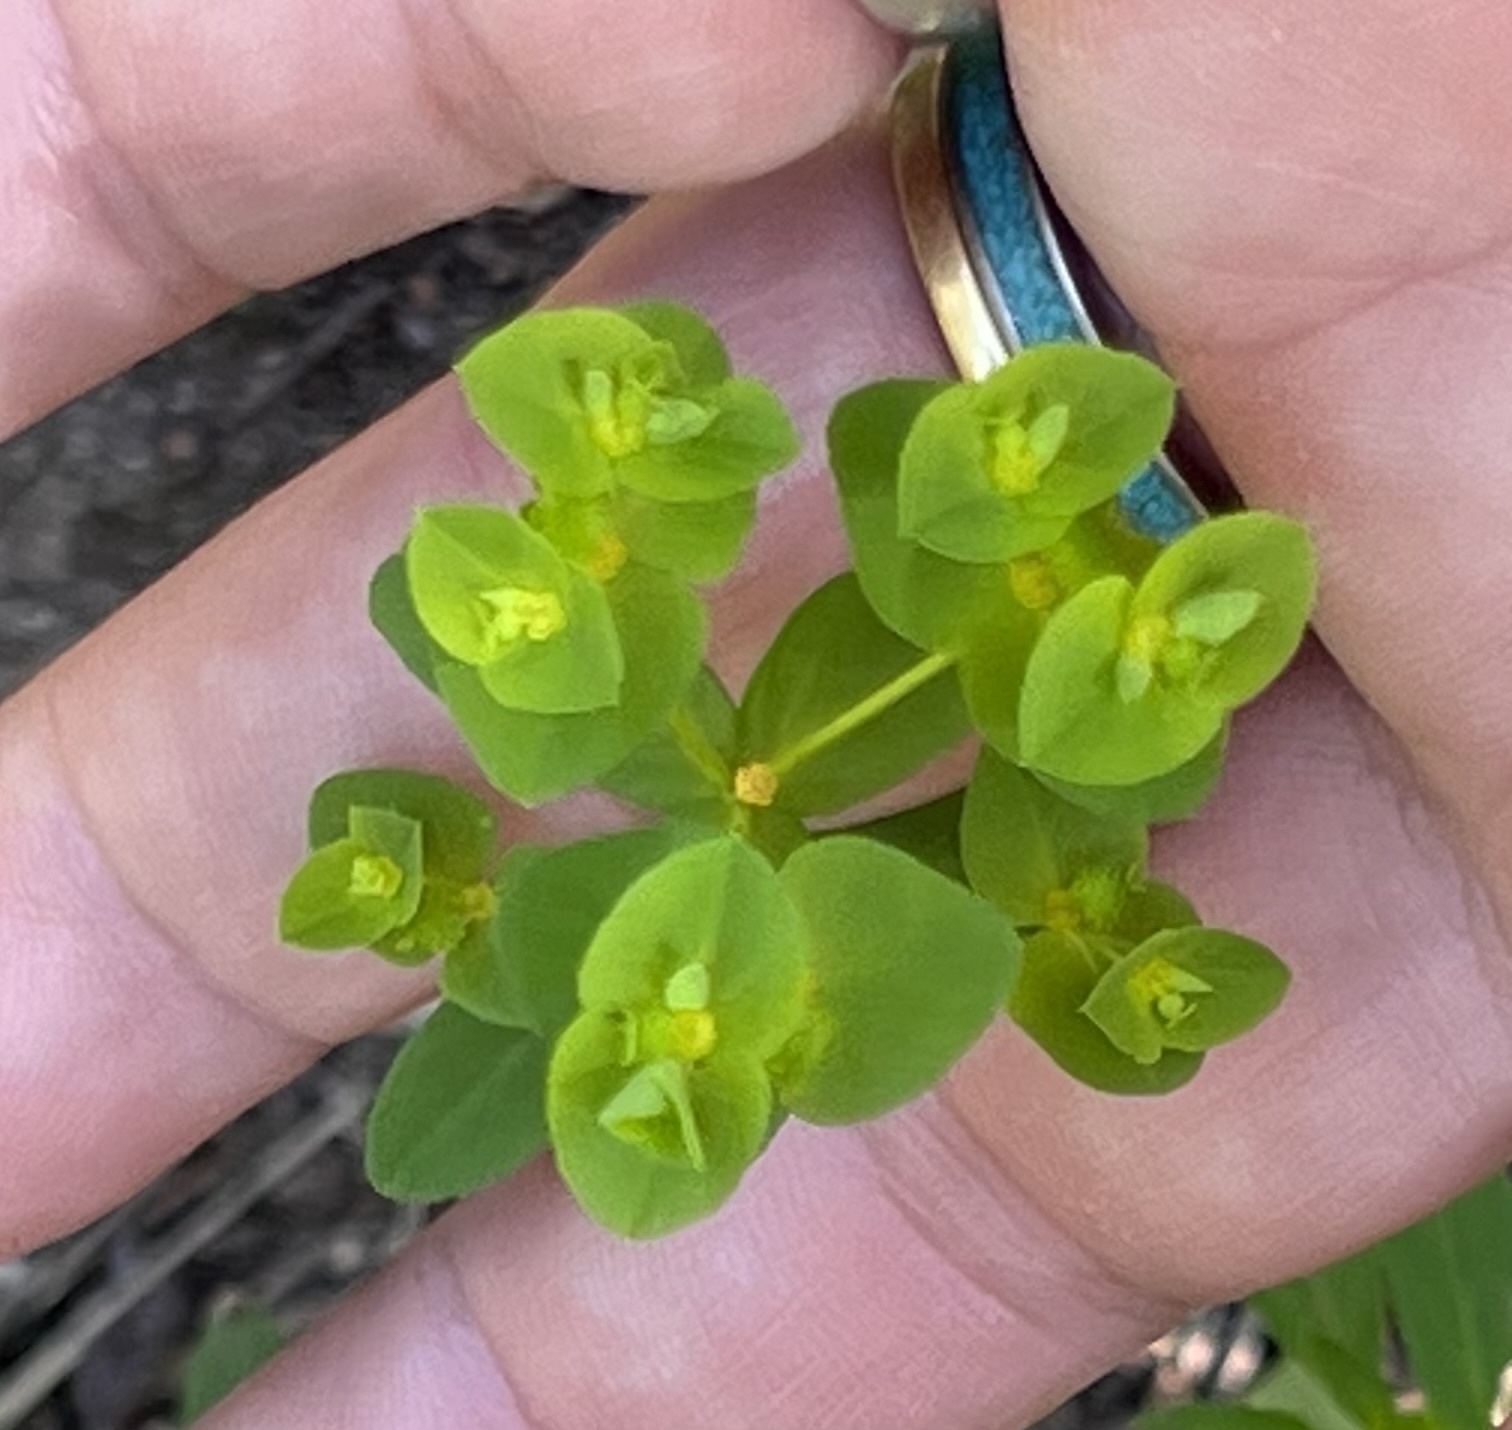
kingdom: Plantae
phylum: Tracheophyta
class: Magnoliopsida
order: Malpighiales
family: Euphorbiaceae
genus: Euphorbia
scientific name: Euphorbia spathulata
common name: Blunt spurge
